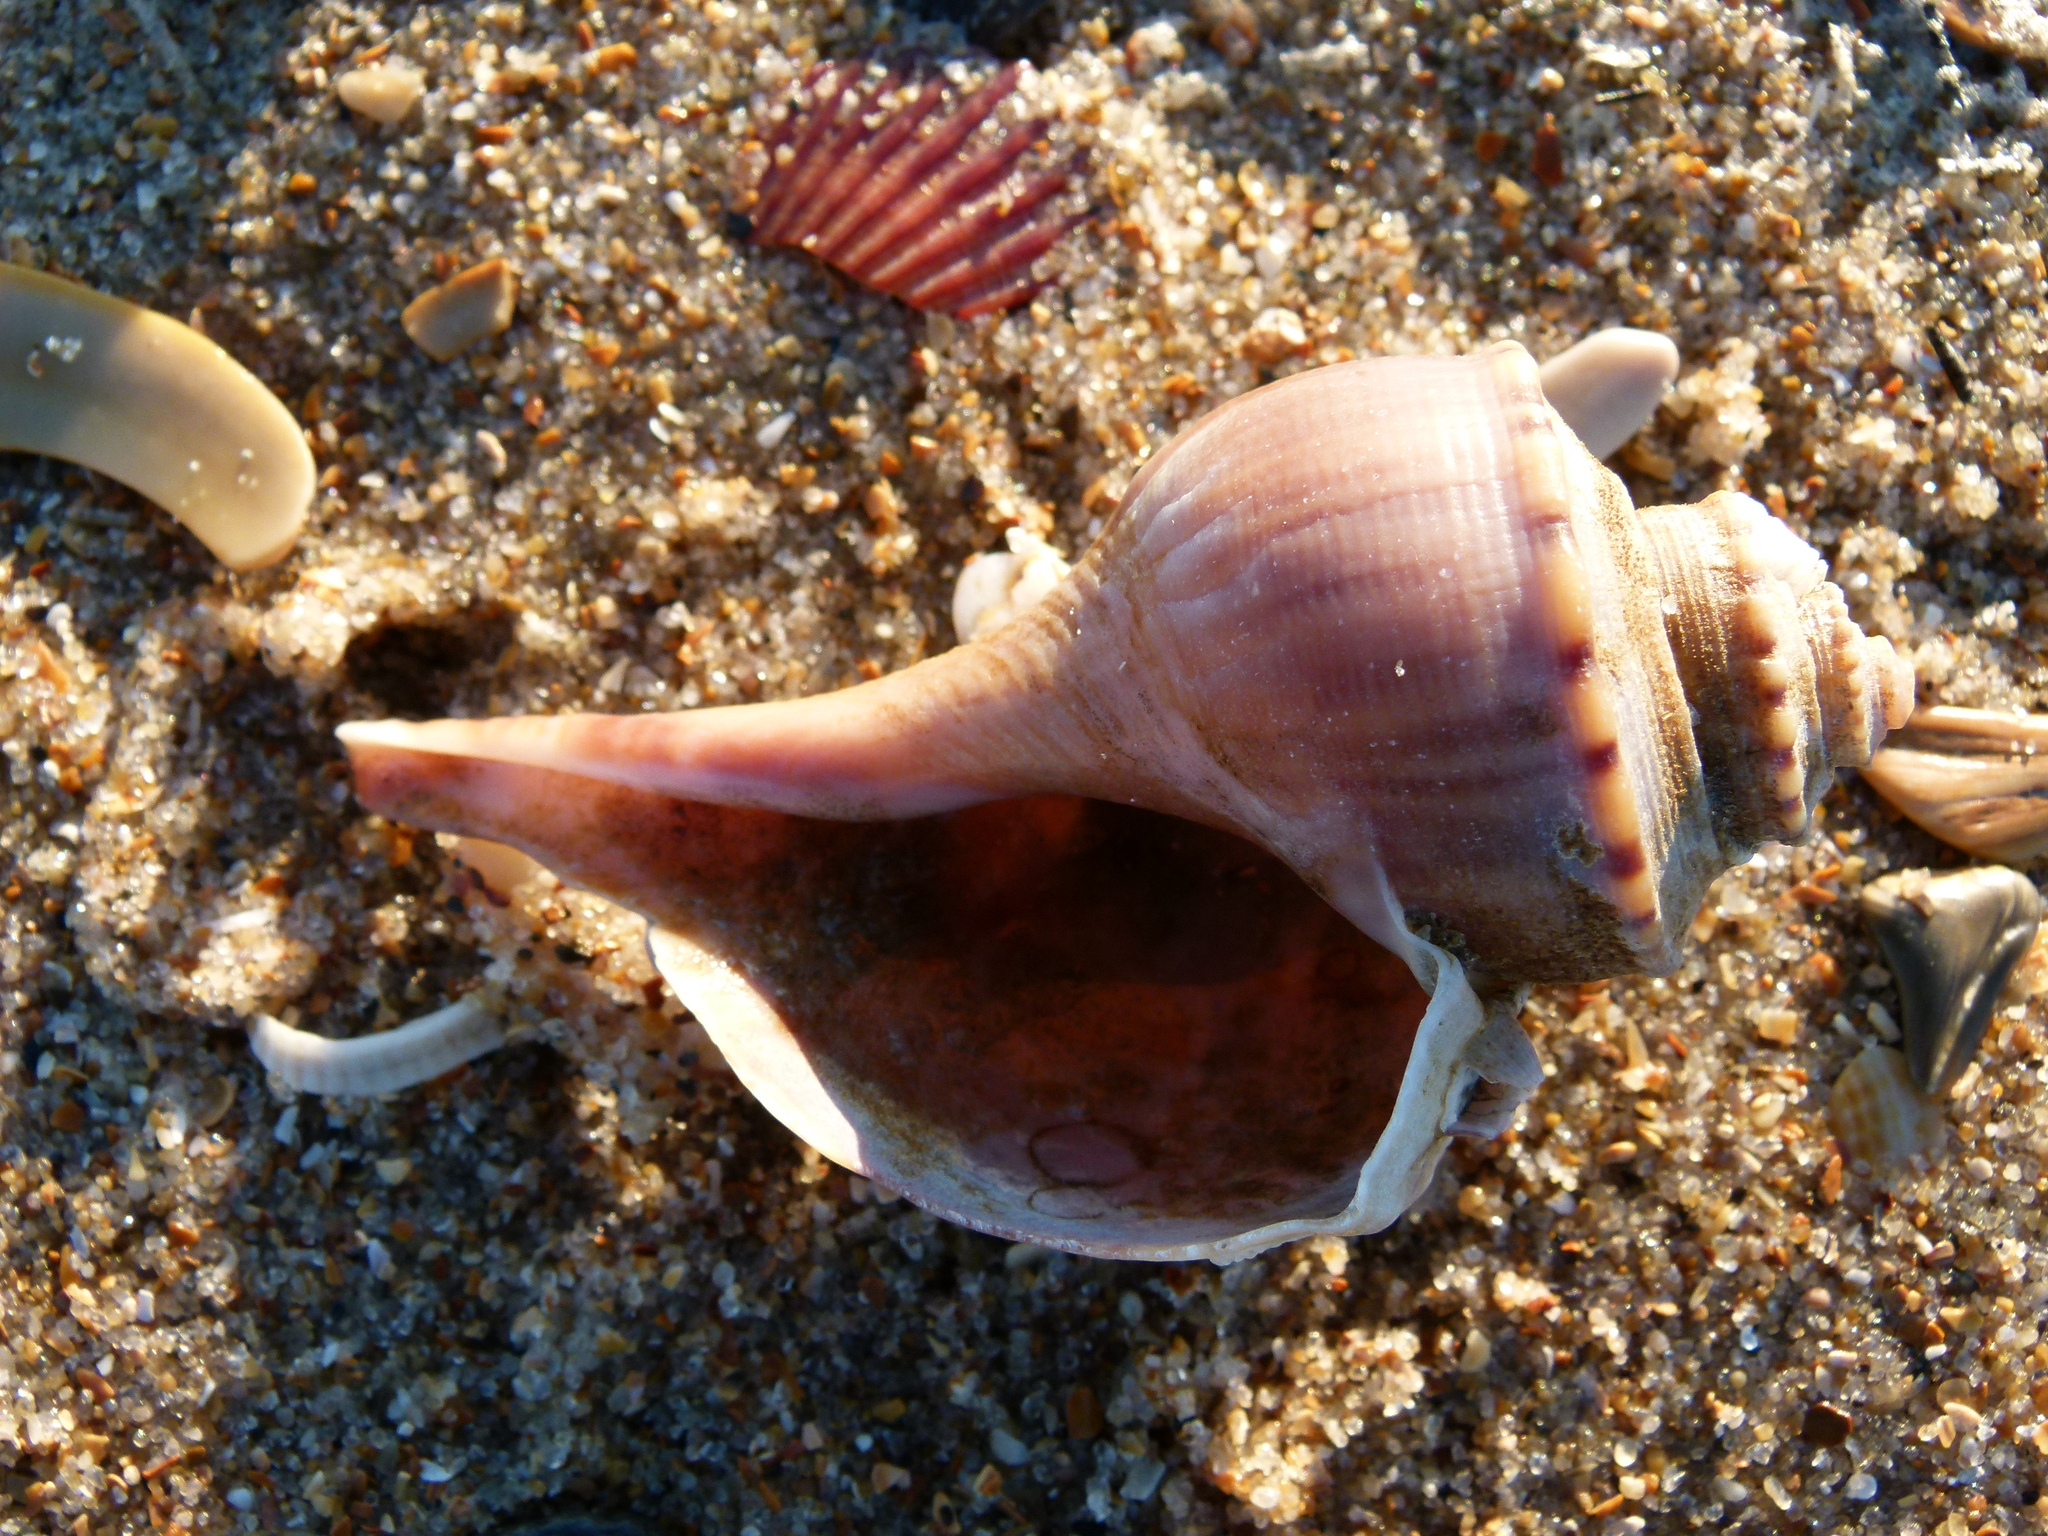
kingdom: Animalia
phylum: Mollusca
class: Gastropoda
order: Neogastropoda
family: Busyconidae
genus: Busycotypus
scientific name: Busycotypus canaliculatus
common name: Channeled whelk
